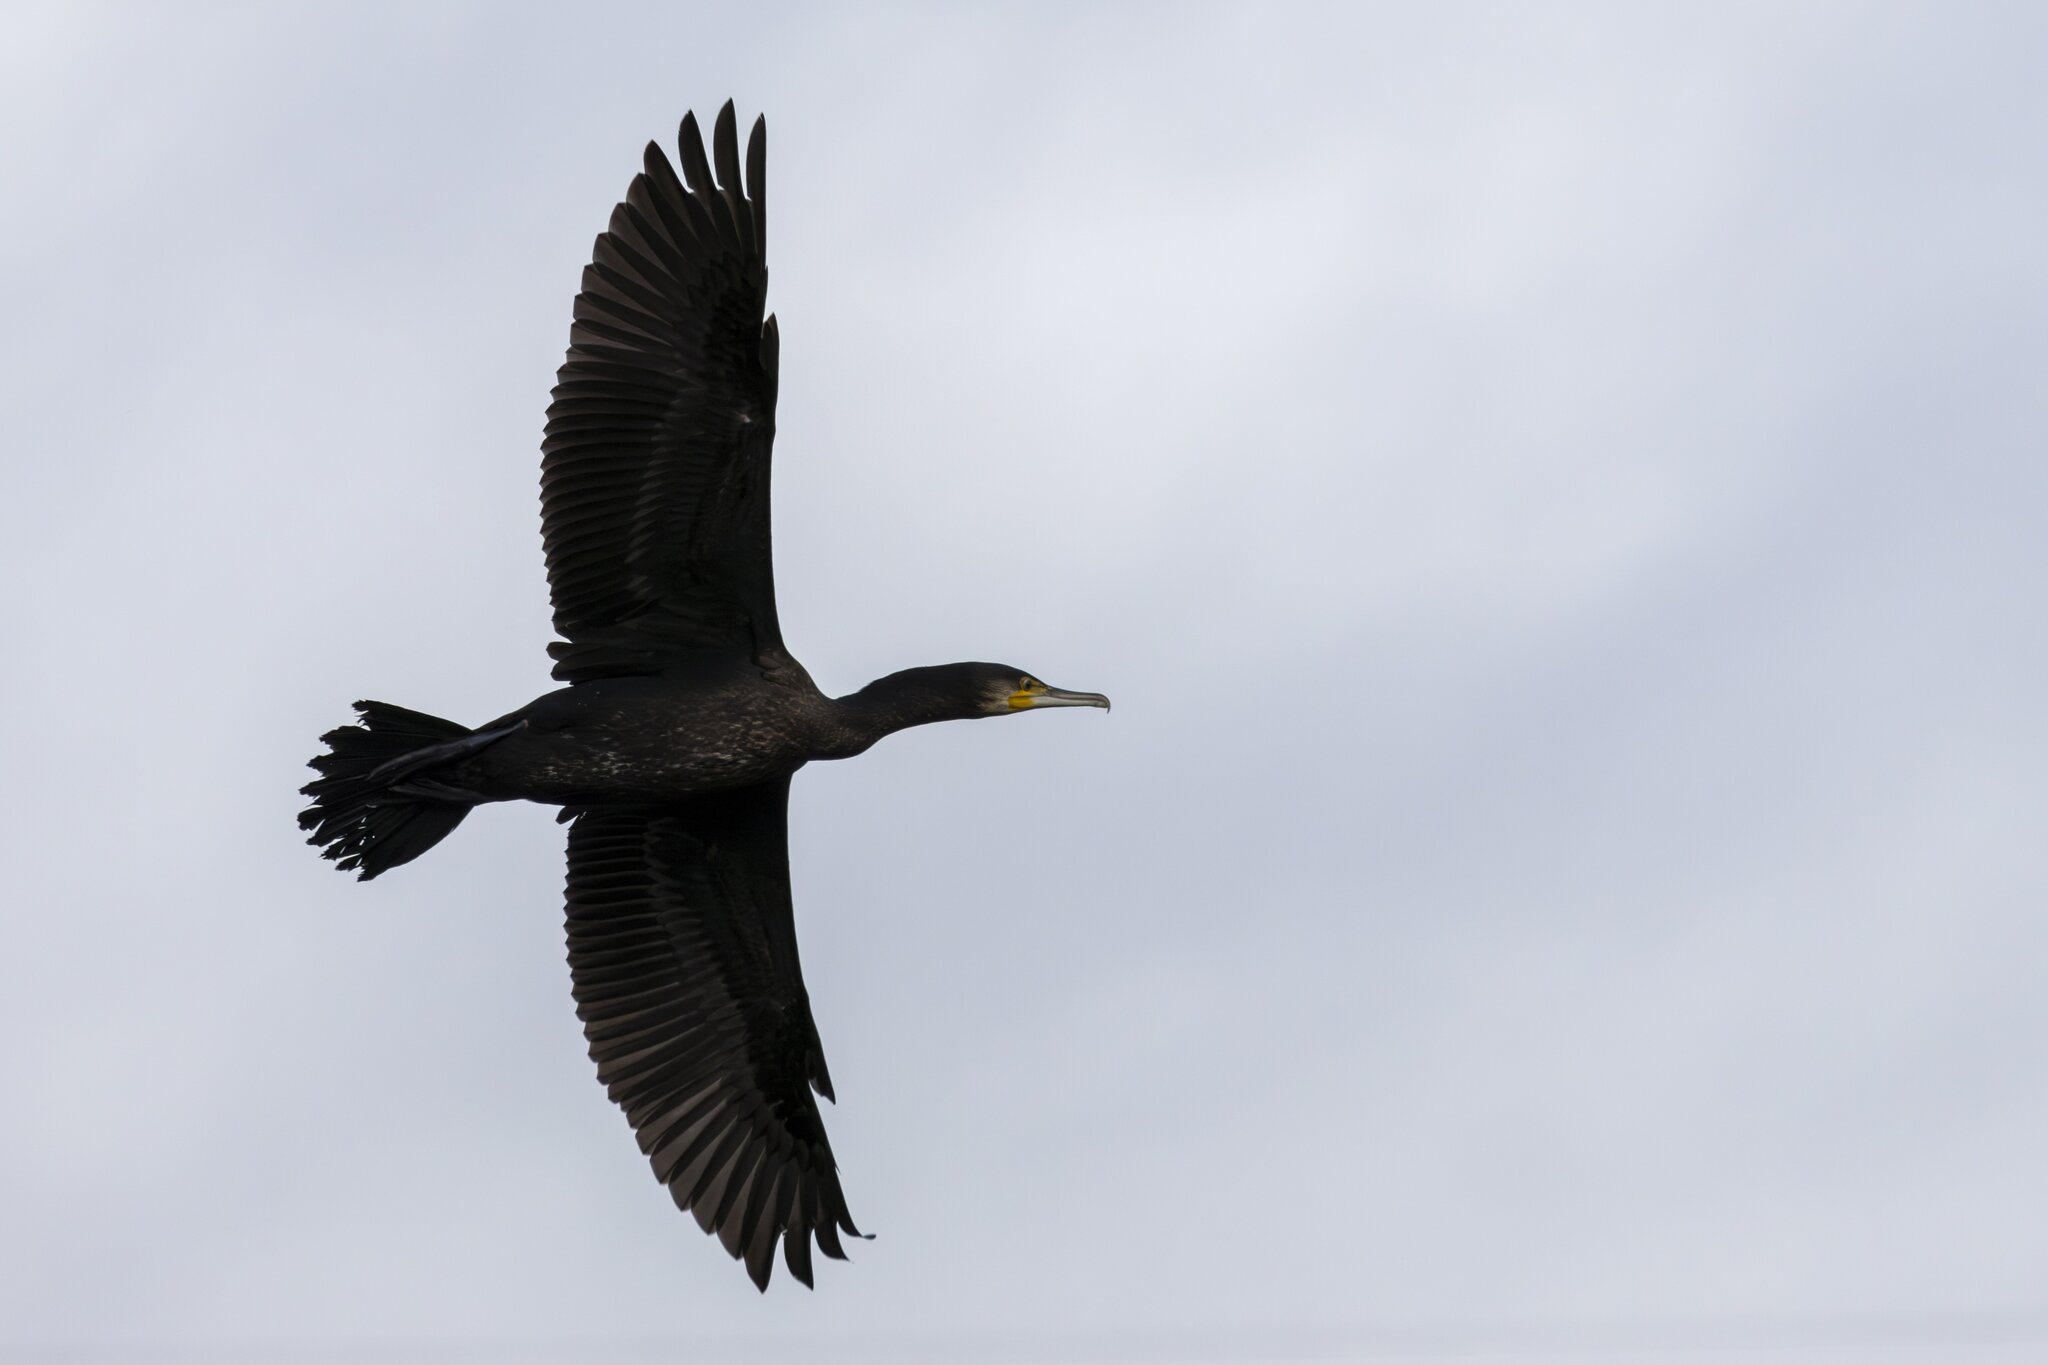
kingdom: Animalia
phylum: Chordata
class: Aves
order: Suliformes
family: Phalacrocoracidae
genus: Phalacrocorax
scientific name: Phalacrocorax carbo
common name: Great cormorant
